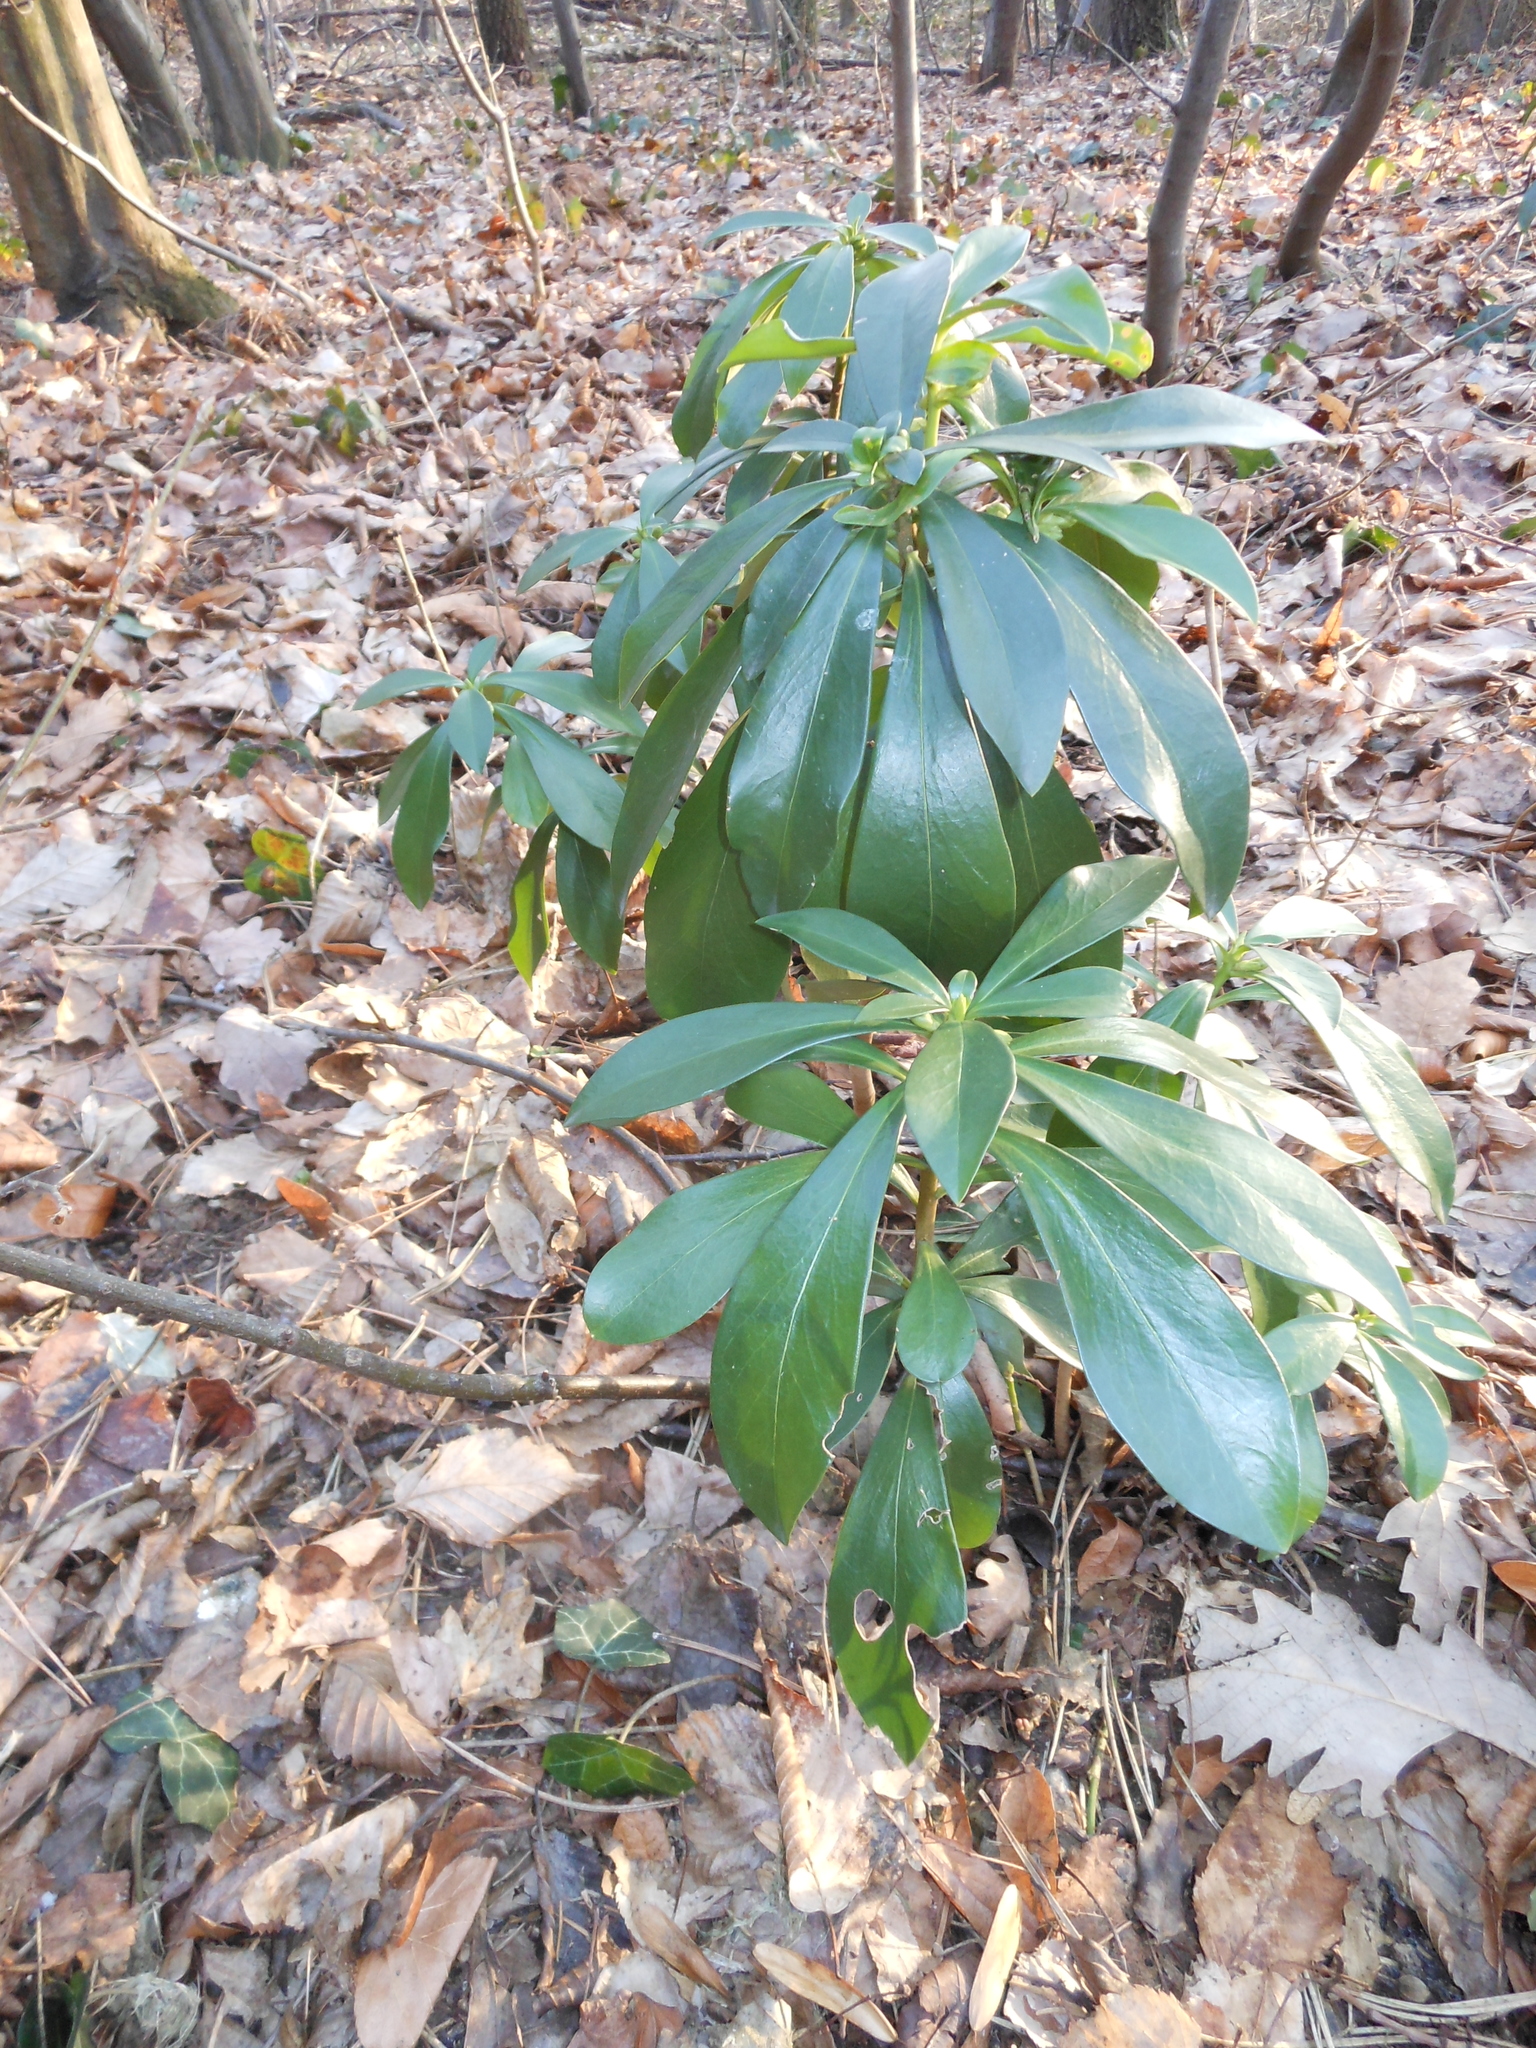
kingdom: Plantae
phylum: Tracheophyta
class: Magnoliopsida
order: Malvales
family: Thymelaeaceae
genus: Daphne
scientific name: Daphne laureola
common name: Spurge-laurel
